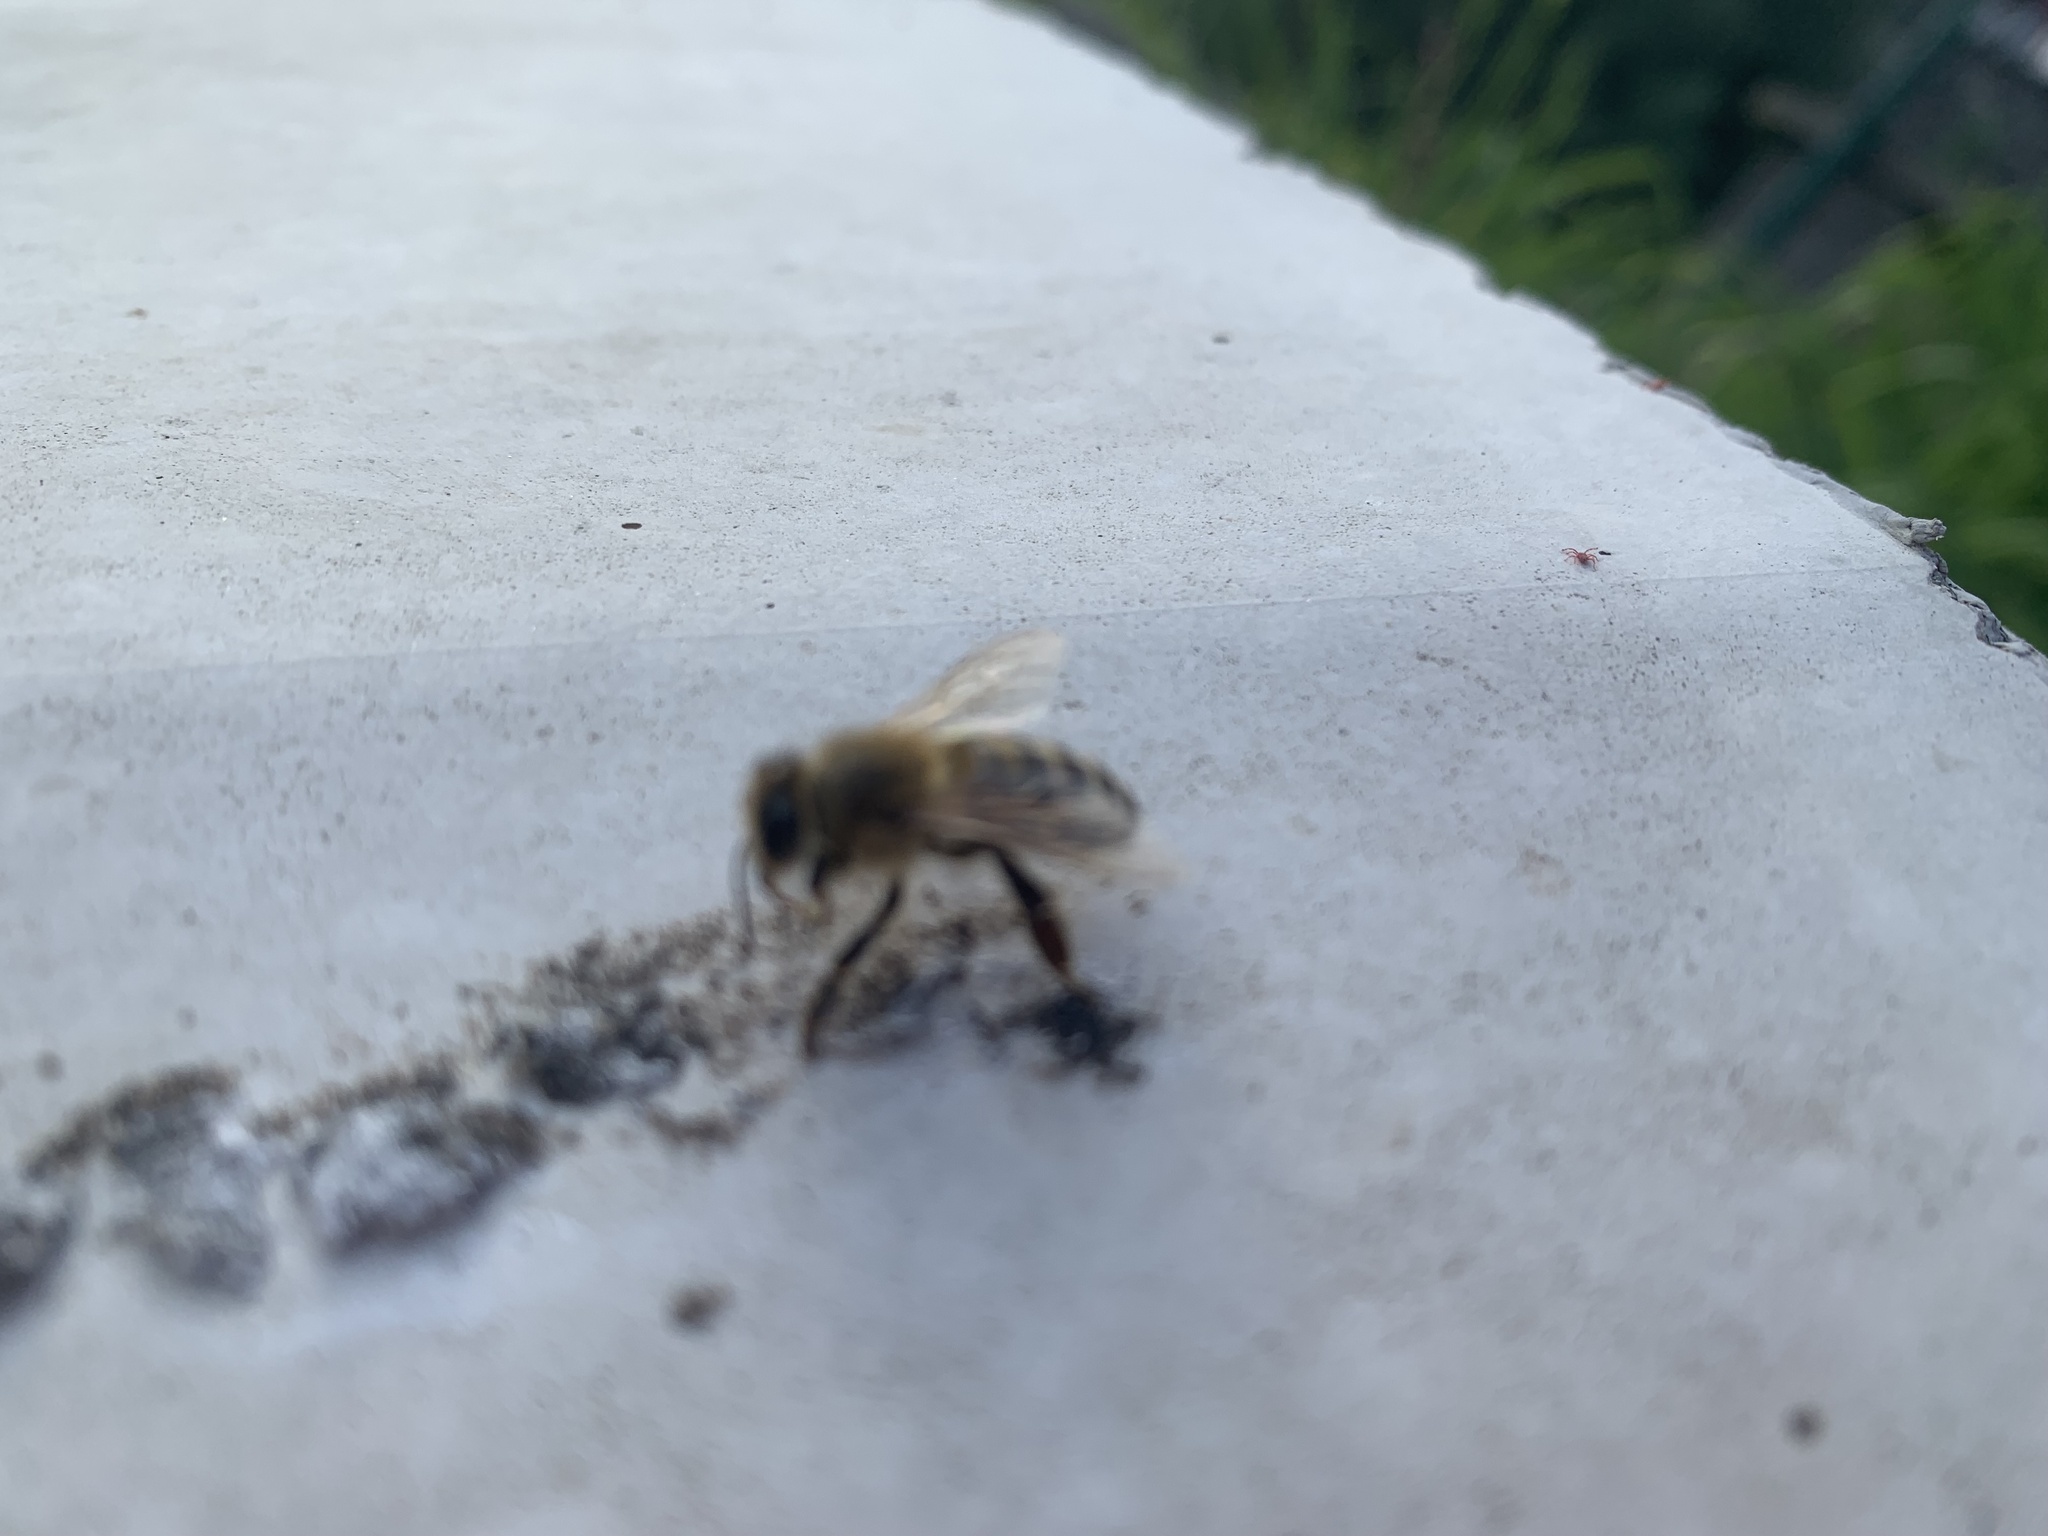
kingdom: Animalia
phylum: Arthropoda
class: Insecta
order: Hymenoptera
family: Apidae
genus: Apis
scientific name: Apis mellifera
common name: Honey bee
